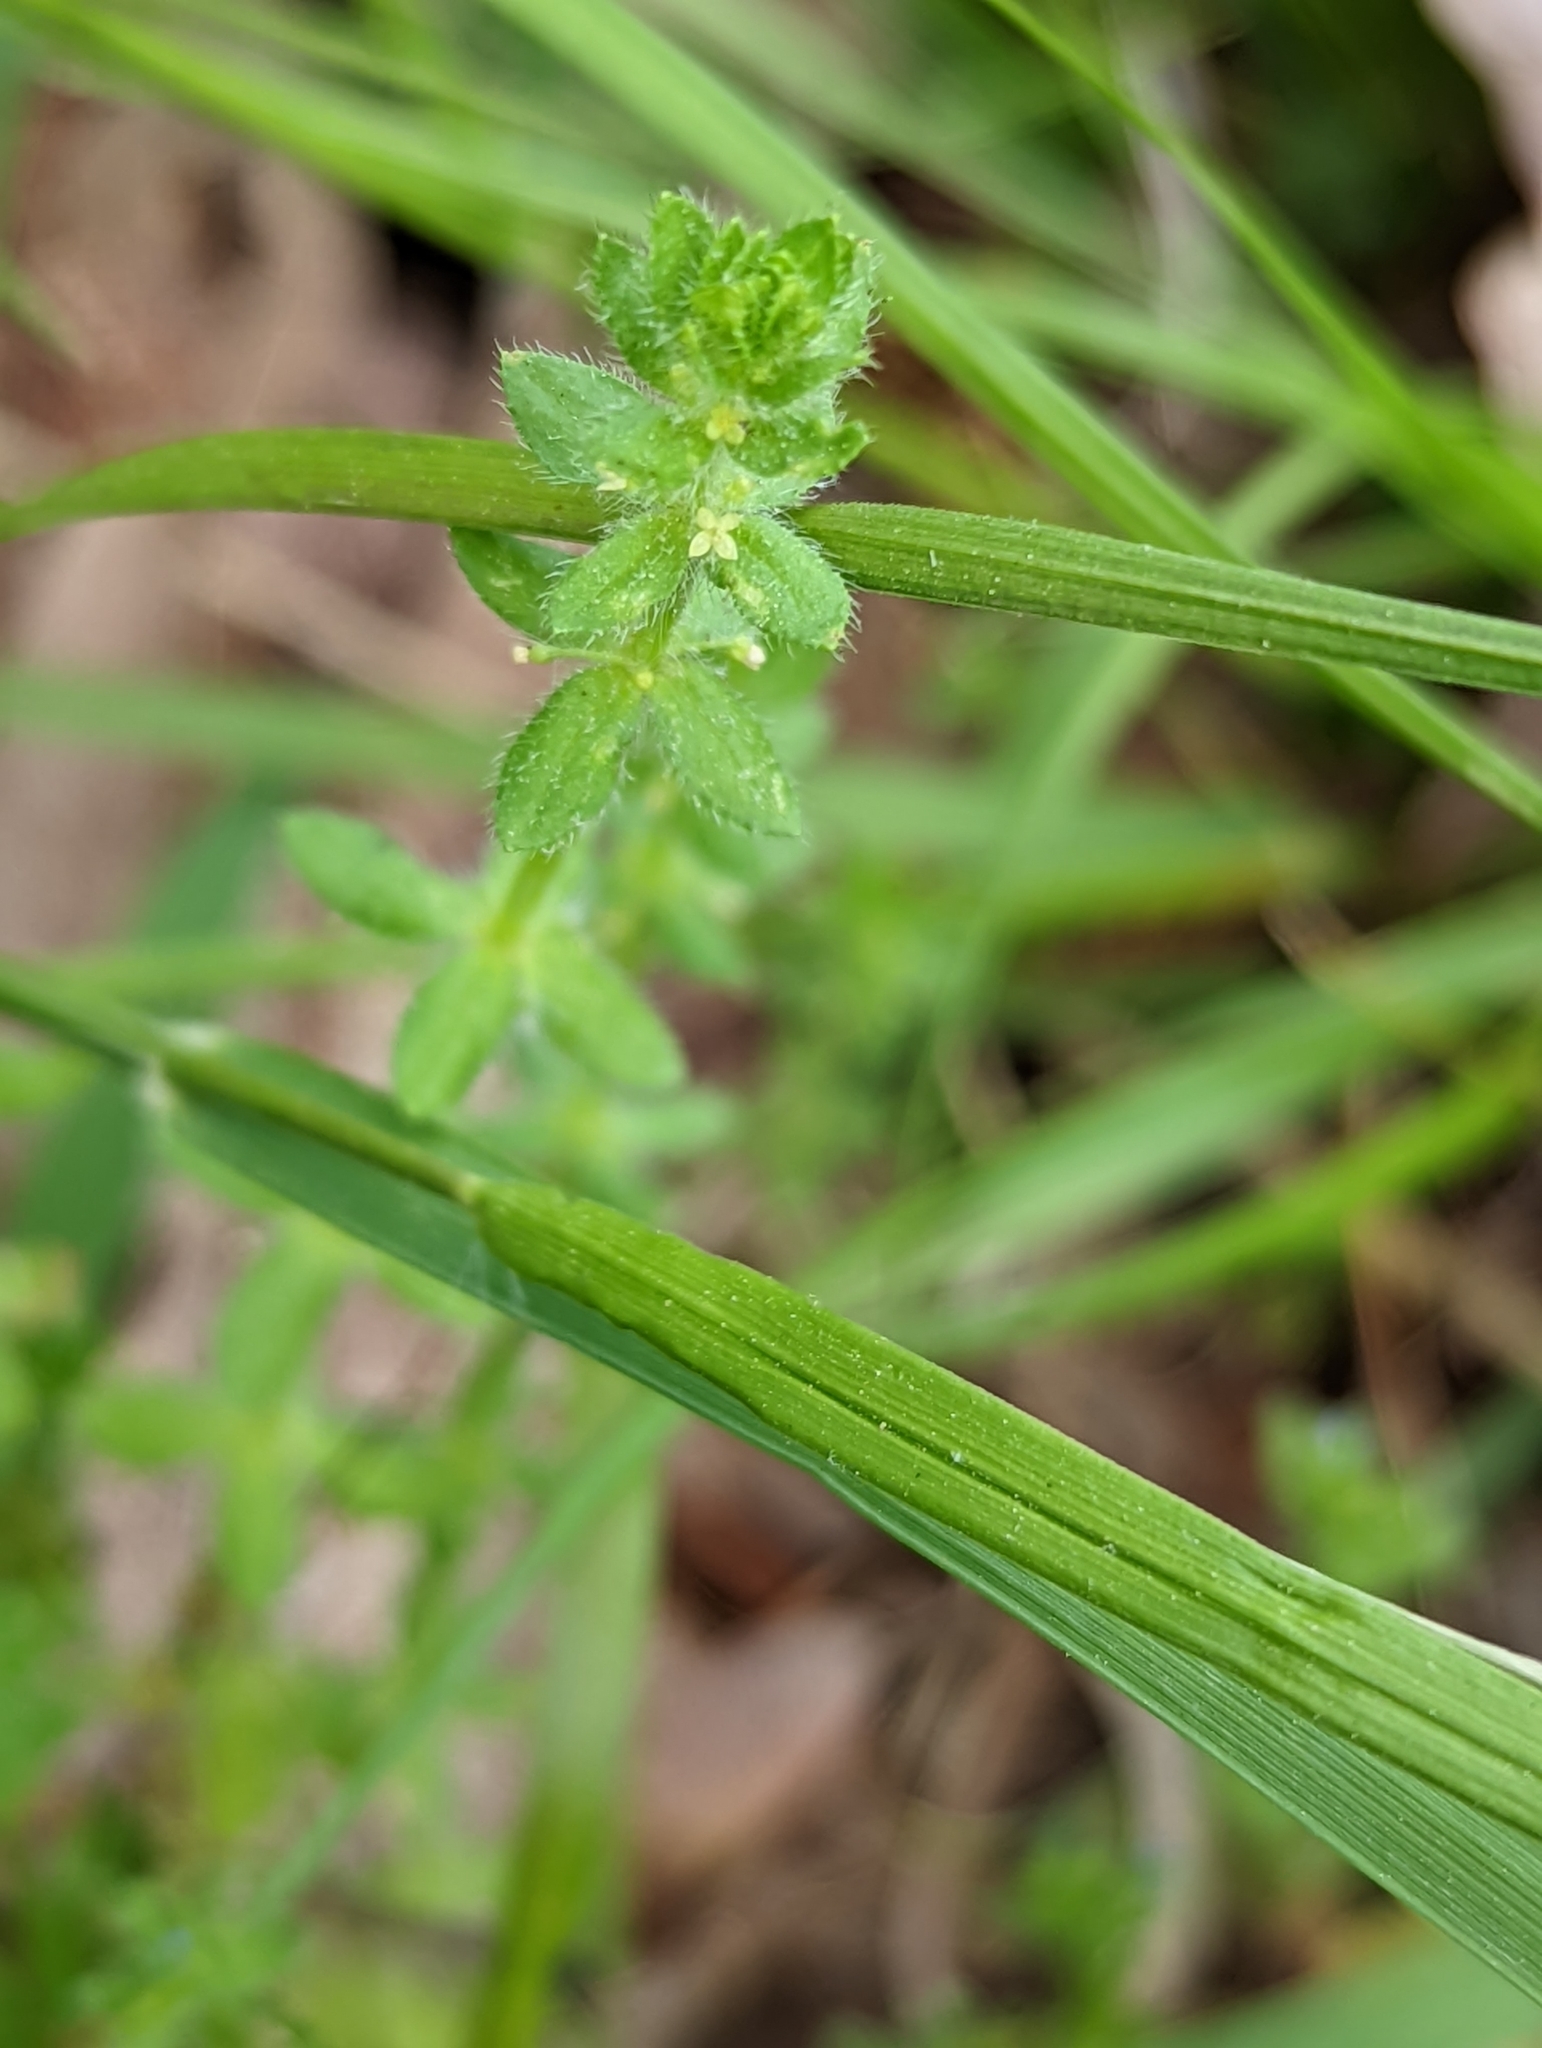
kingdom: Plantae
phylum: Tracheophyta
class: Magnoliopsida
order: Gentianales
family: Rubiaceae
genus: Cruciata
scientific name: Cruciata pedemontana
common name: Piedmont bedstraw
